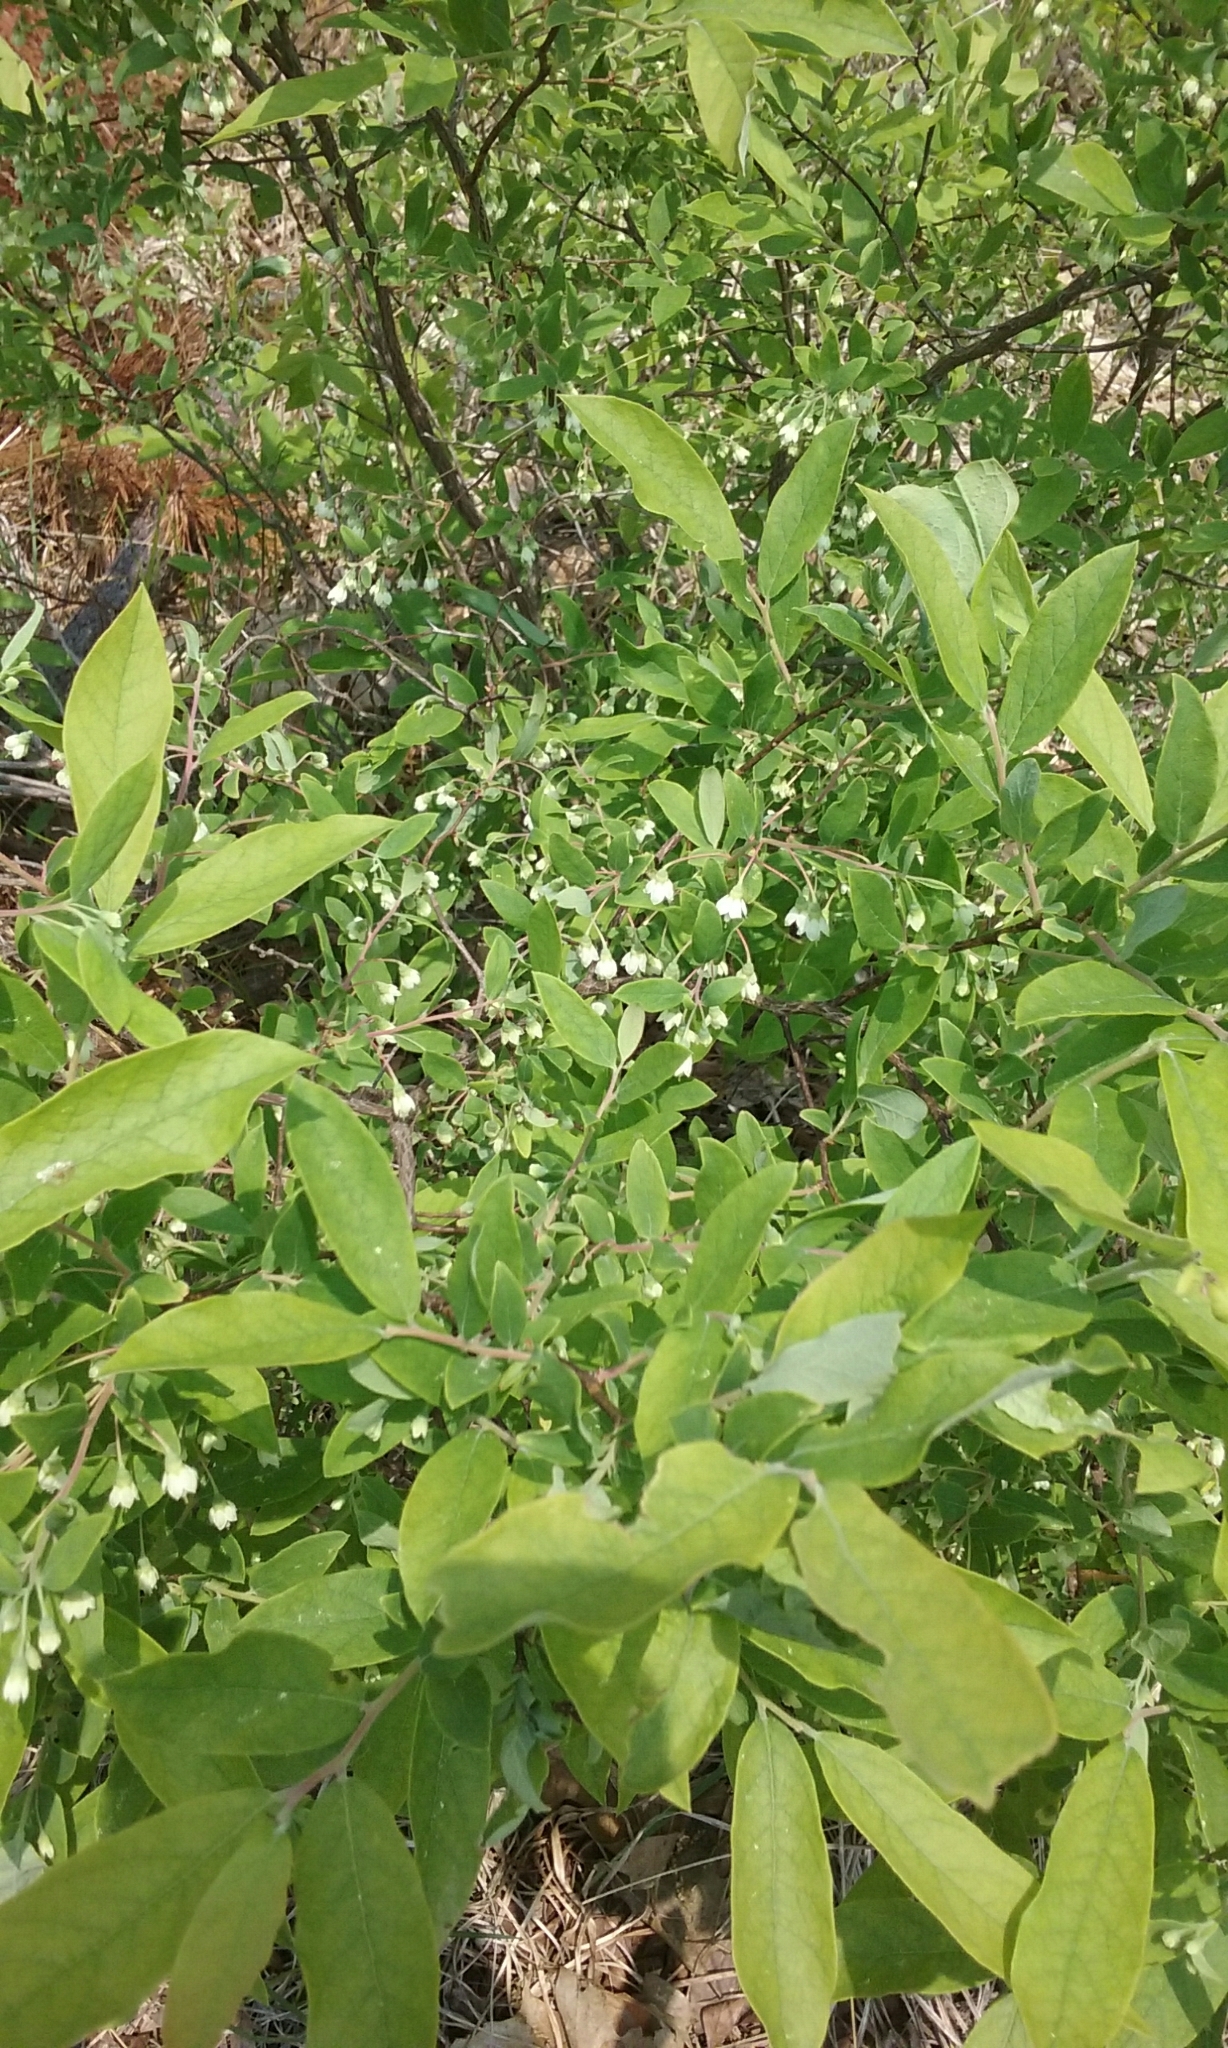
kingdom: Plantae
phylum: Tracheophyta
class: Magnoliopsida
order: Ericales
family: Ericaceae
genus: Vaccinium
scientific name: Vaccinium stamineum
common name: Deerberry
